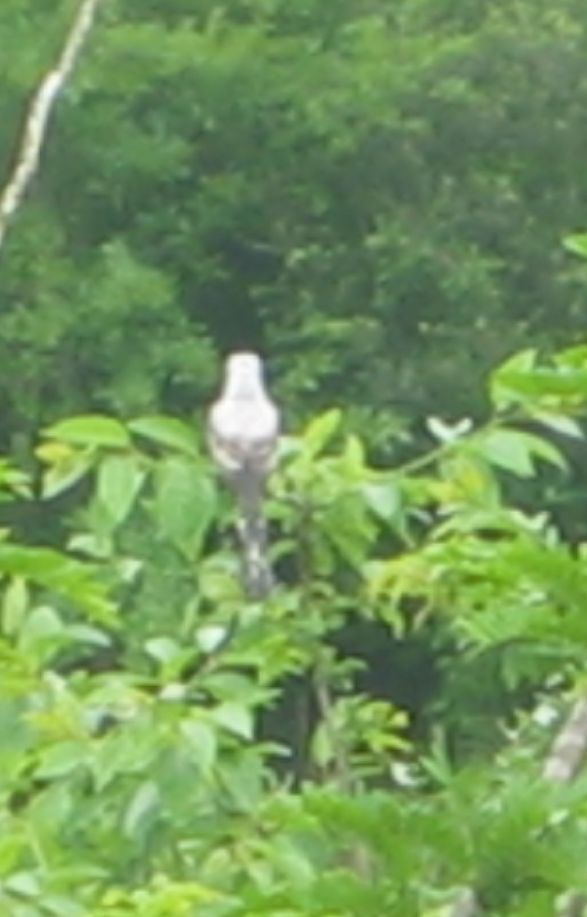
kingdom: Animalia
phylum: Chordata
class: Aves
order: Passeriformes
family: Tyrannidae
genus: Tyrannus
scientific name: Tyrannus forficatus
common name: Scissor-tailed flycatcher
